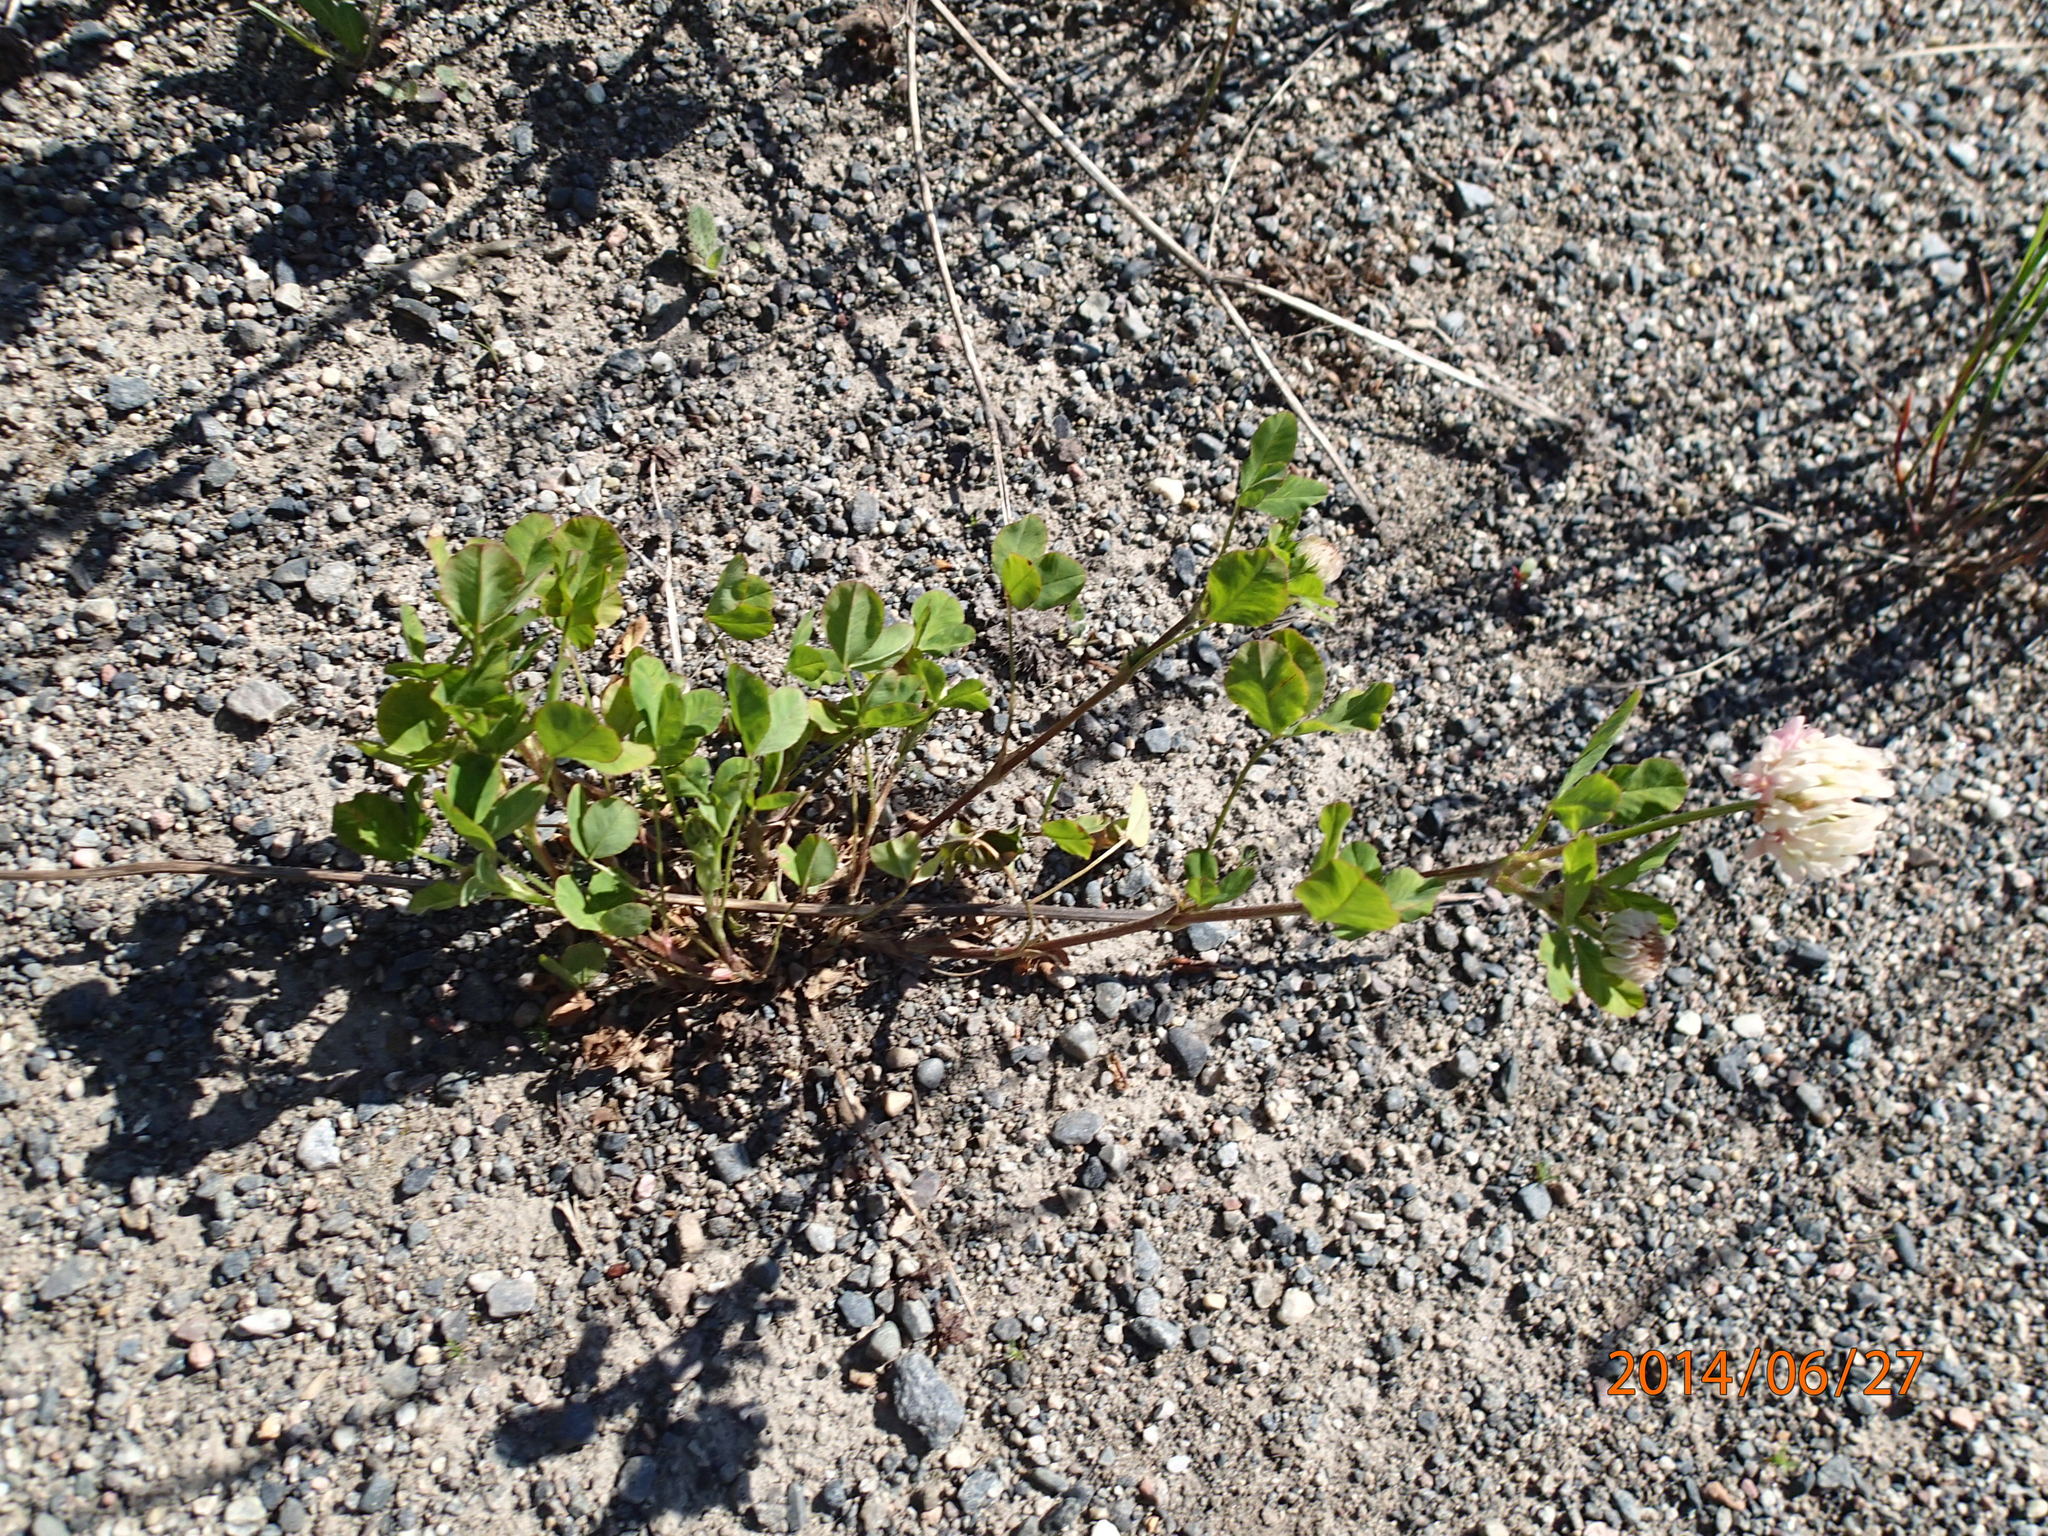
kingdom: Plantae
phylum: Tracheophyta
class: Magnoliopsida
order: Fabales
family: Fabaceae
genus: Trifolium
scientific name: Trifolium hybridum
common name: Alsike clover
